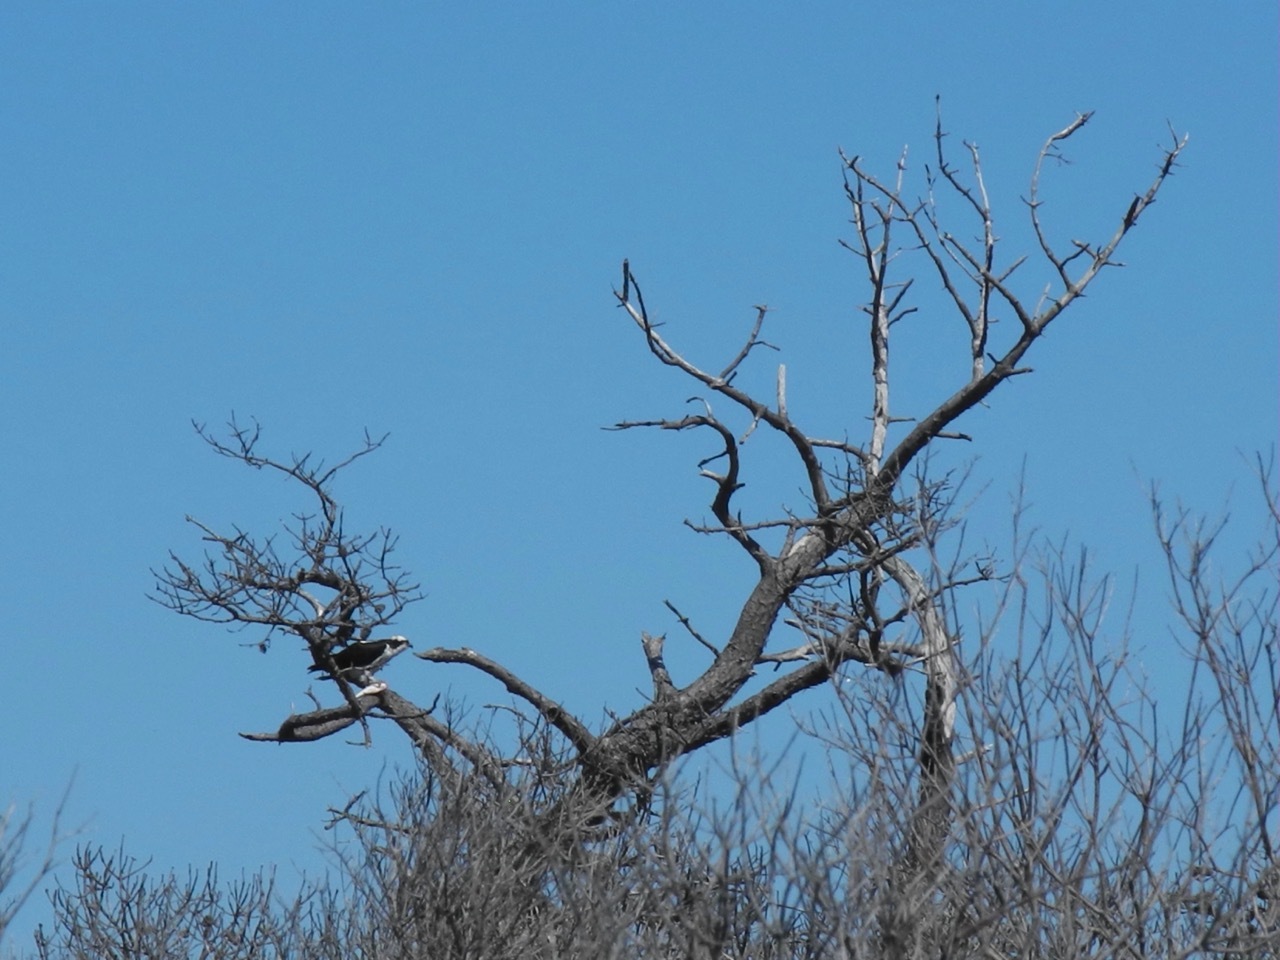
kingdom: Animalia
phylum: Chordata
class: Aves
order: Accipitriformes
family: Pandionidae
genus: Pandion
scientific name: Pandion haliaetus
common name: Osprey
